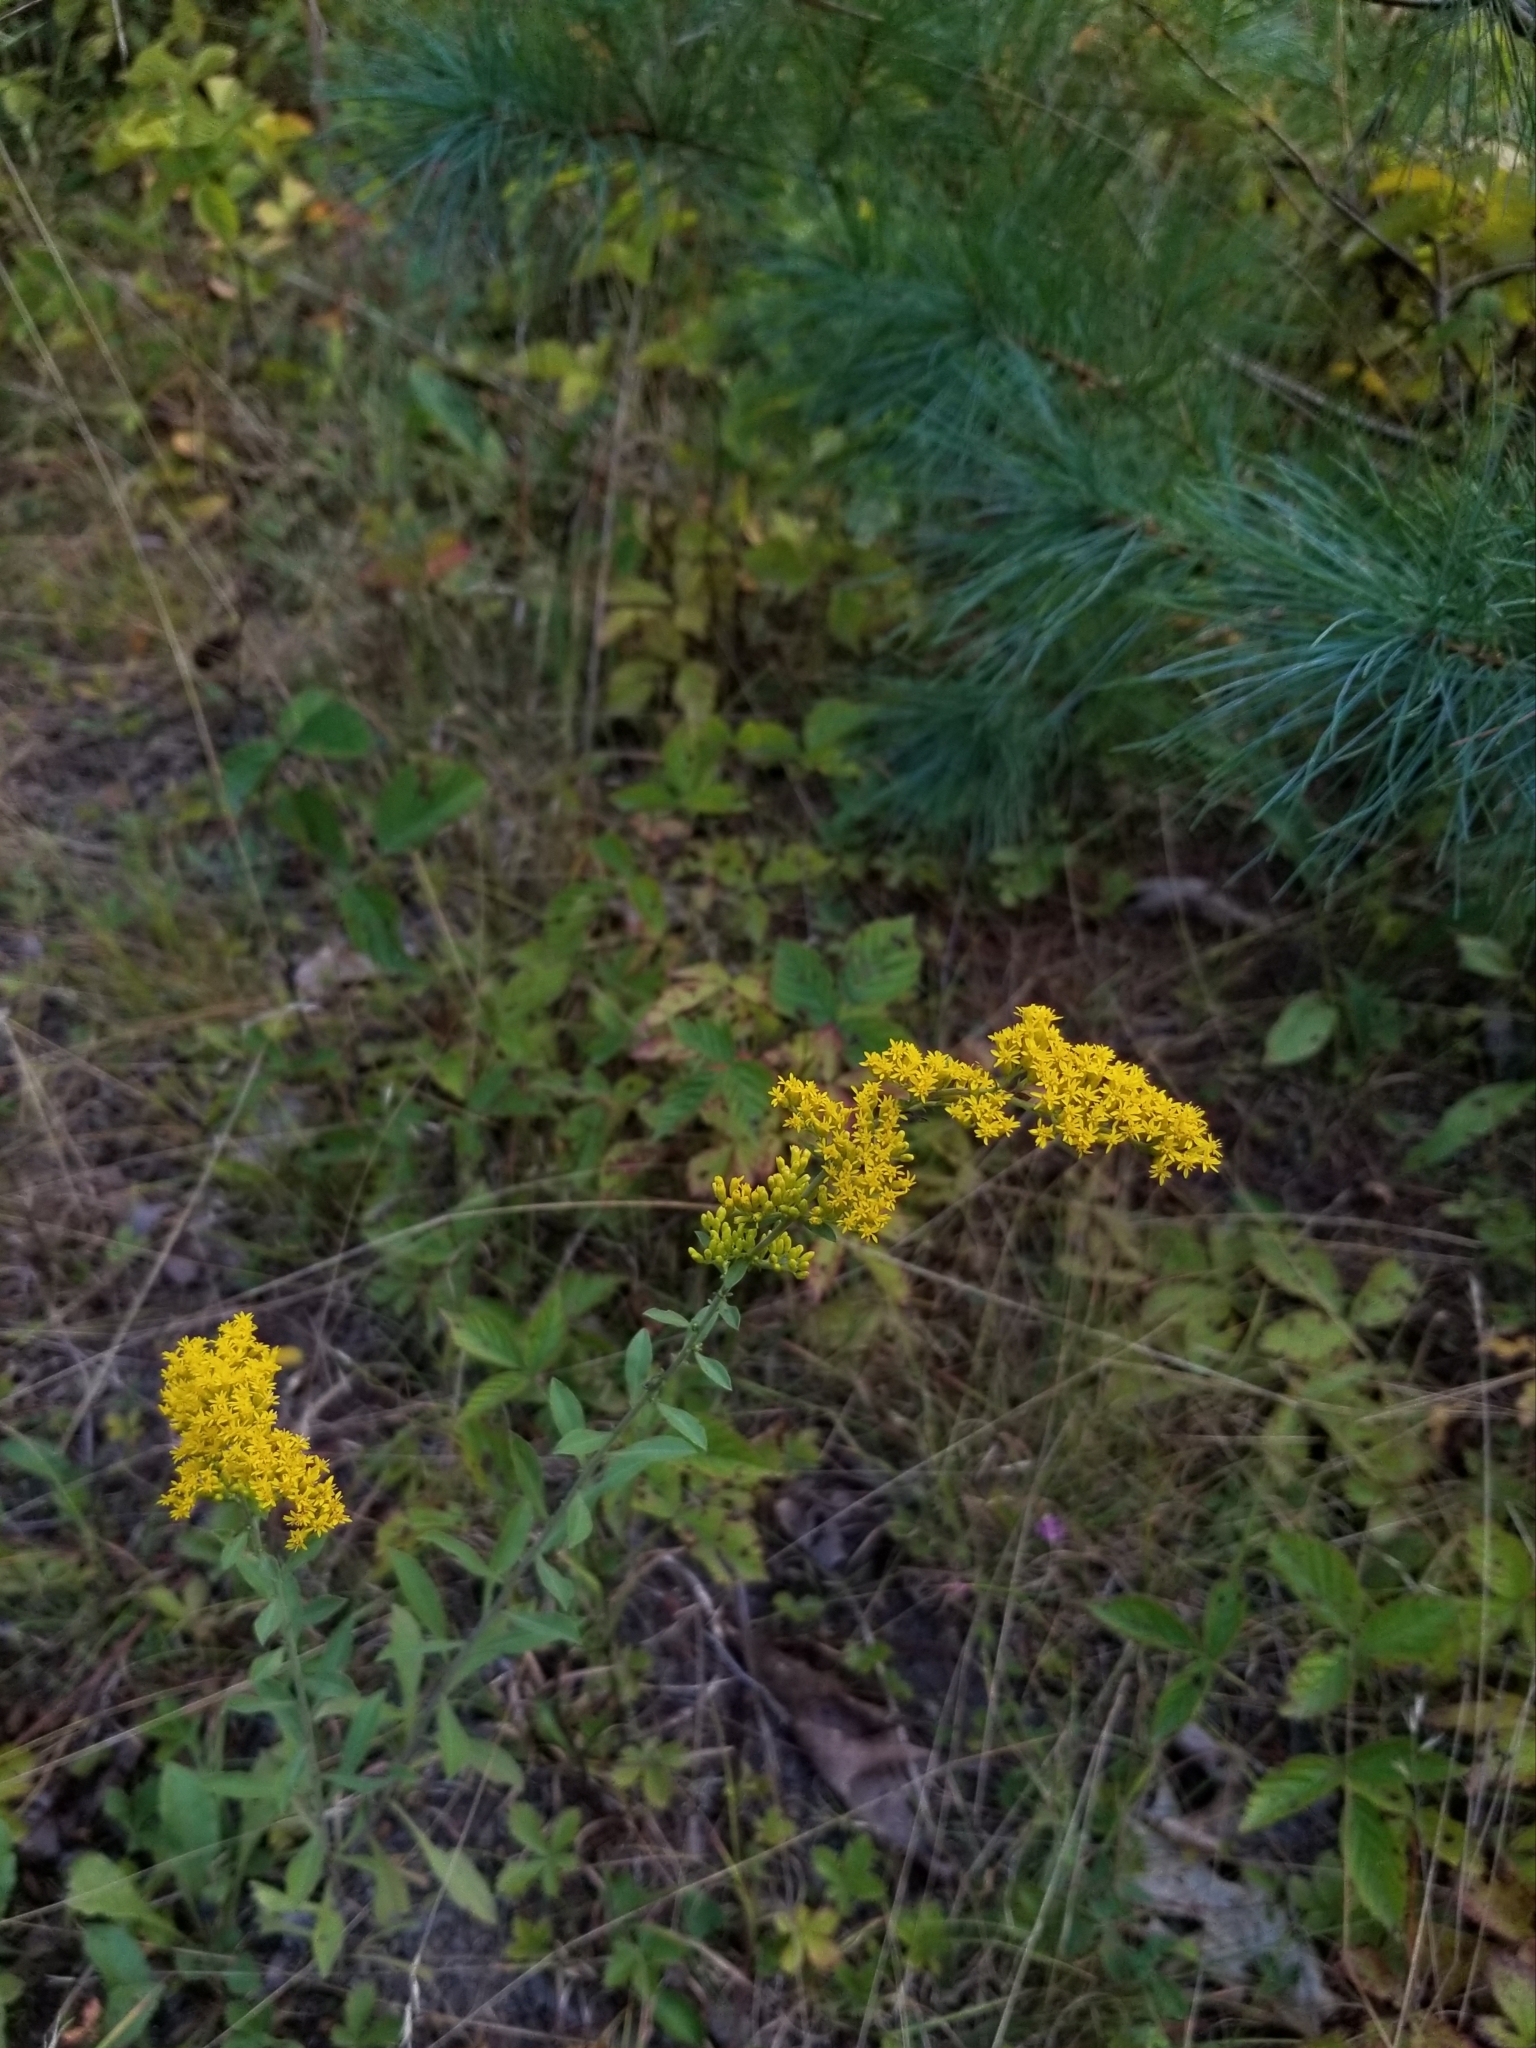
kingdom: Plantae
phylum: Tracheophyta
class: Magnoliopsida
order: Asterales
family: Asteraceae
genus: Solidago
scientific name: Solidago nemoralis
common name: Grey goldenrod
